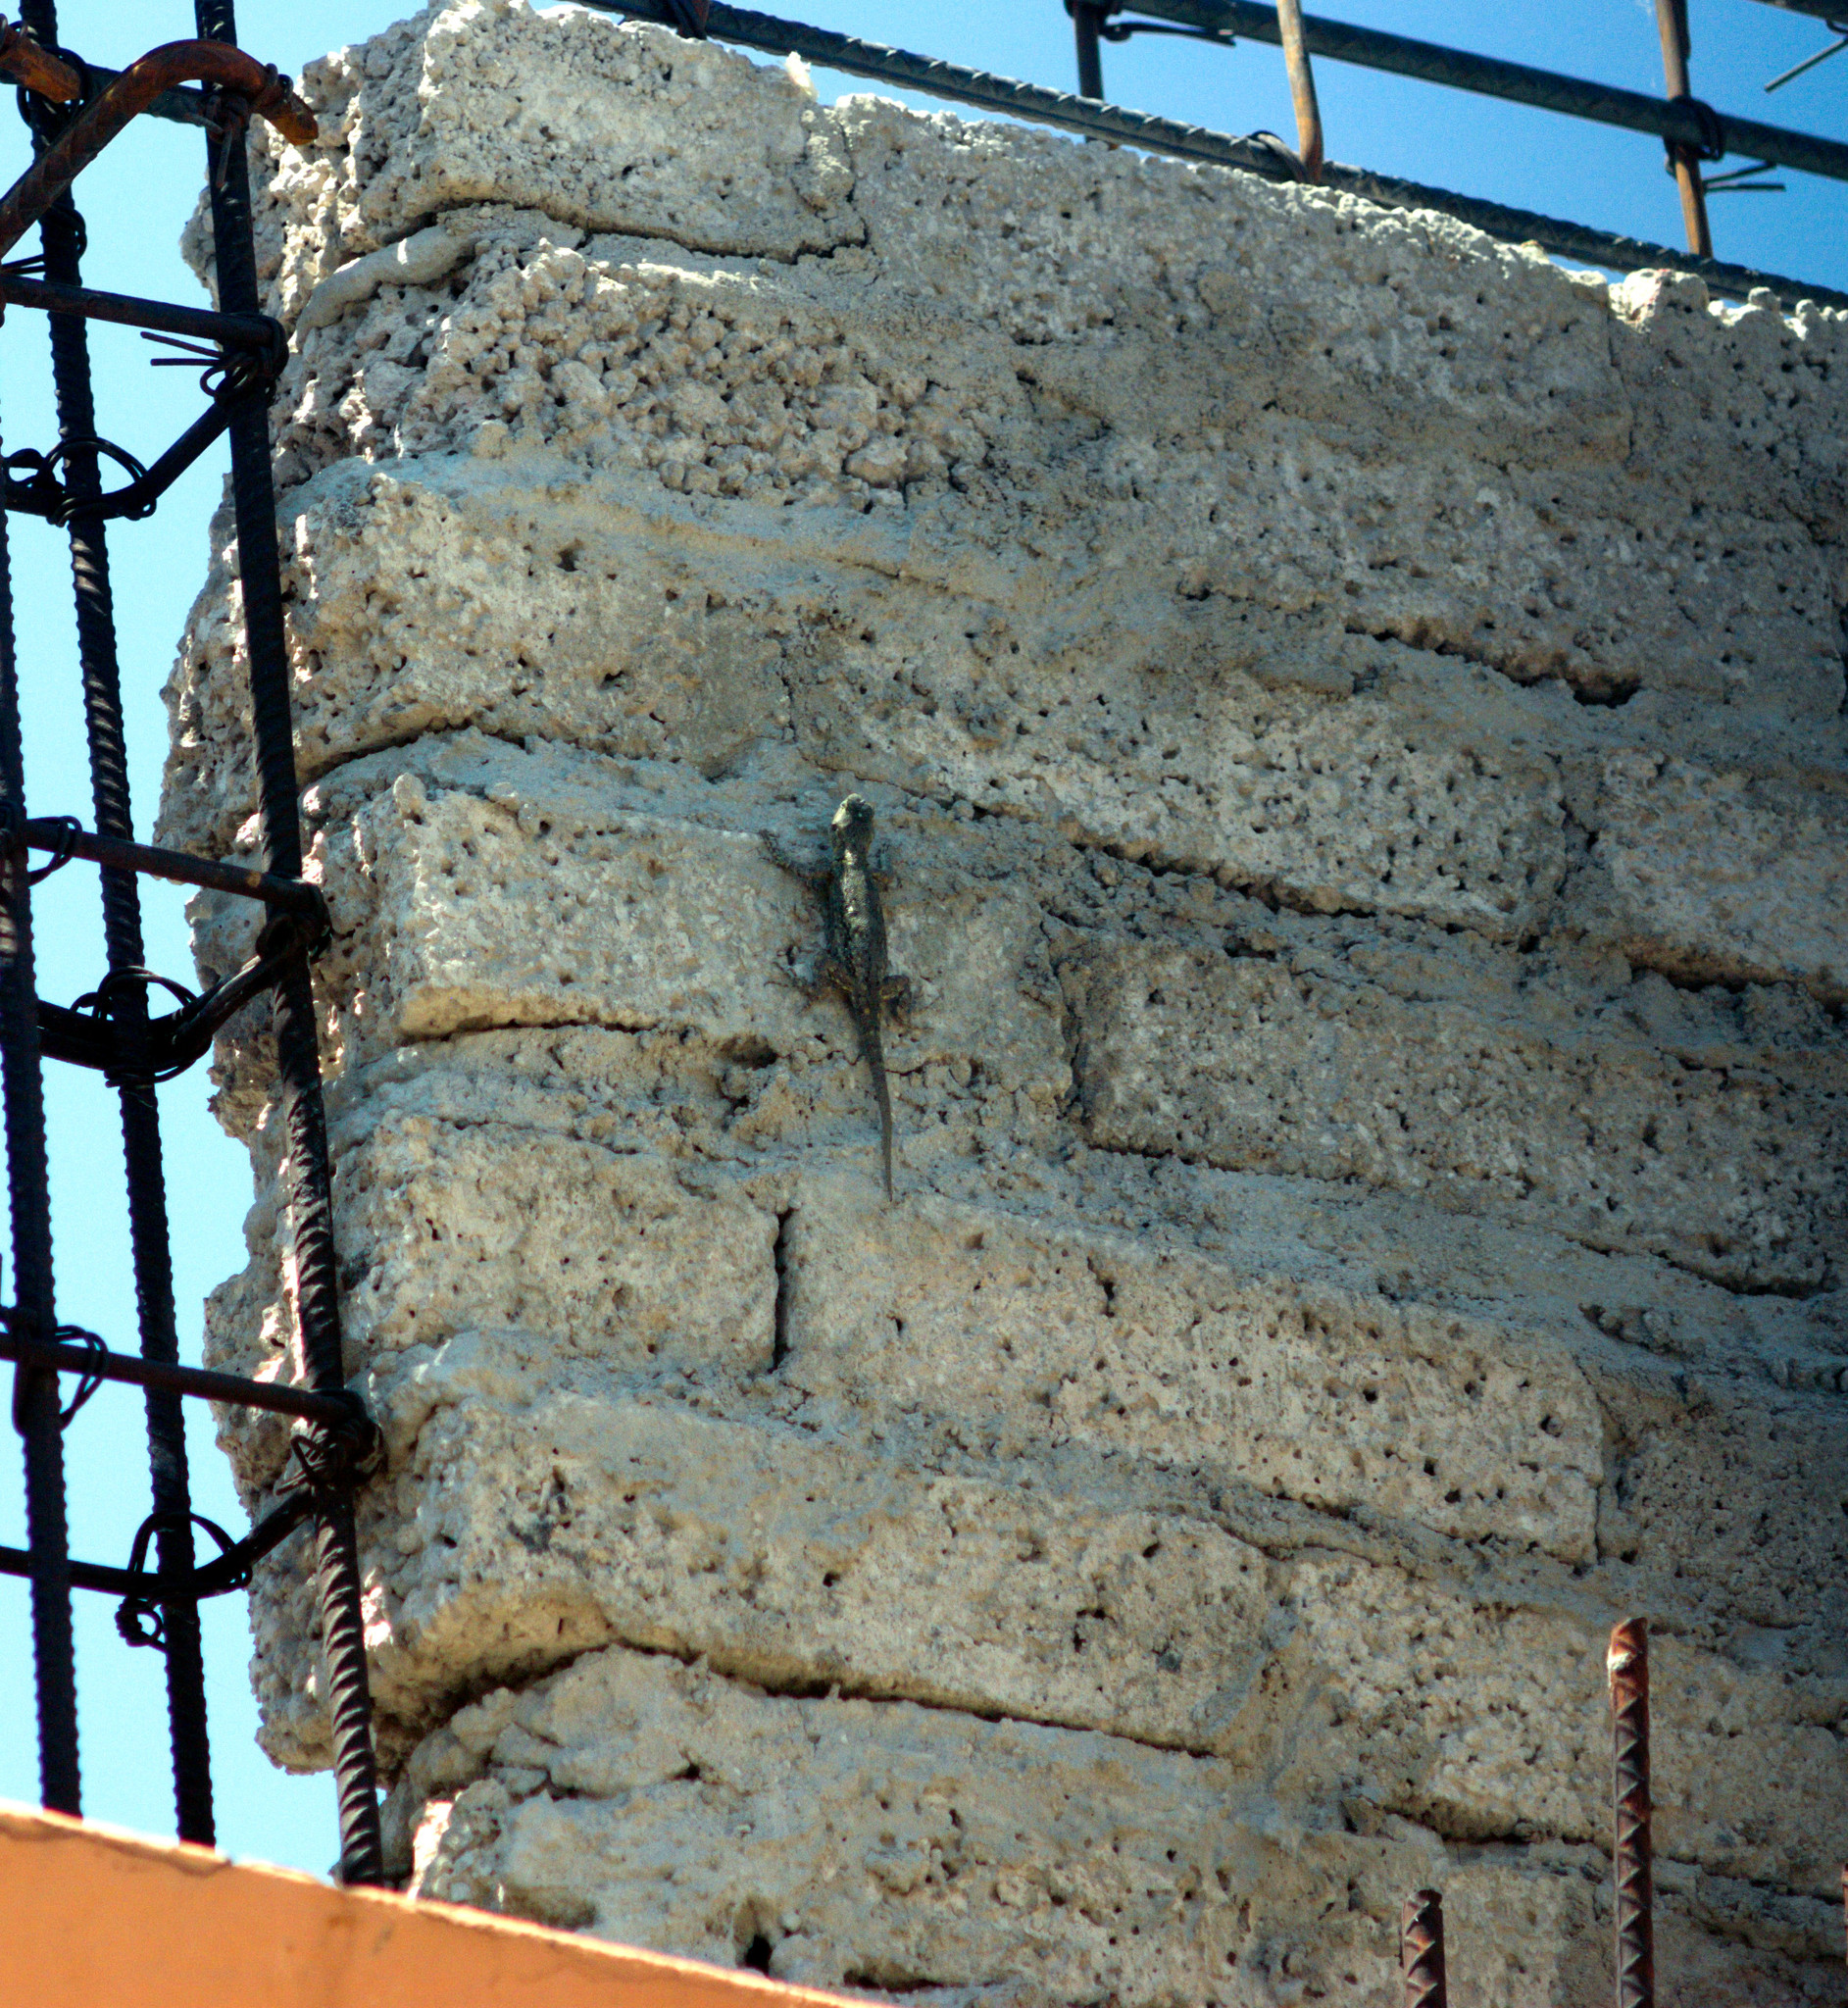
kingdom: Animalia
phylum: Chordata
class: Squamata
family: Phrynosomatidae
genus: Sceloporus
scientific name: Sceloporus grammicus
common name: Mesquite lizard
